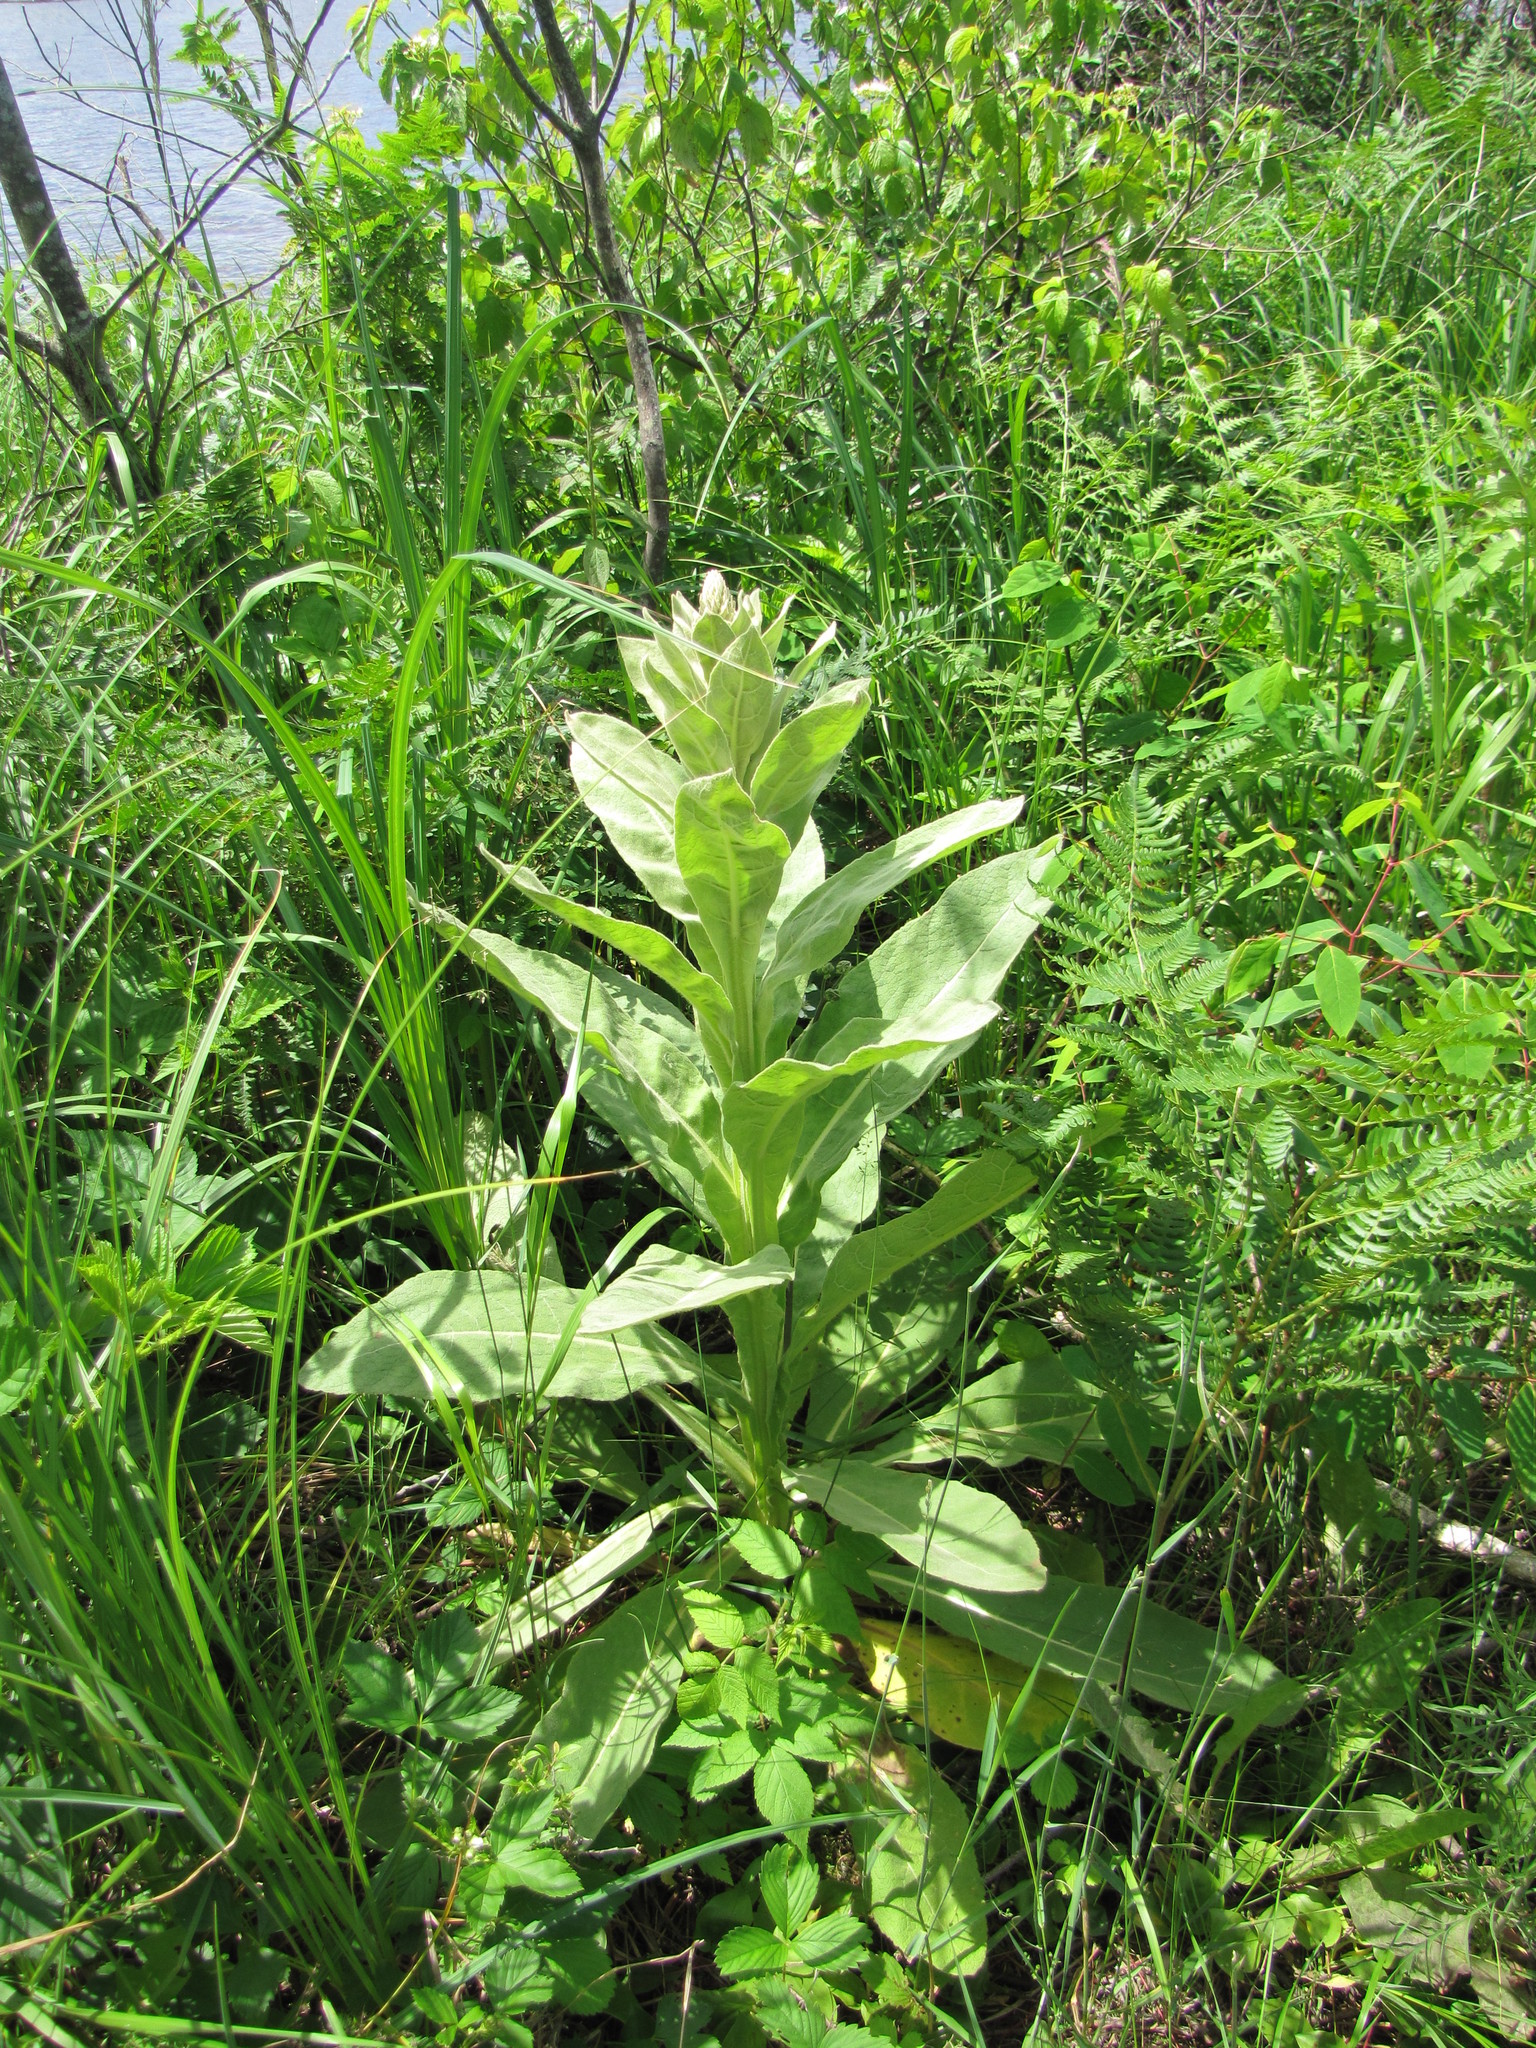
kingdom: Plantae
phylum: Tracheophyta
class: Magnoliopsida
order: Lamiales
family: Scrophulariaceae
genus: Verbascum
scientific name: Verbascum thapsus
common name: Common mullein
